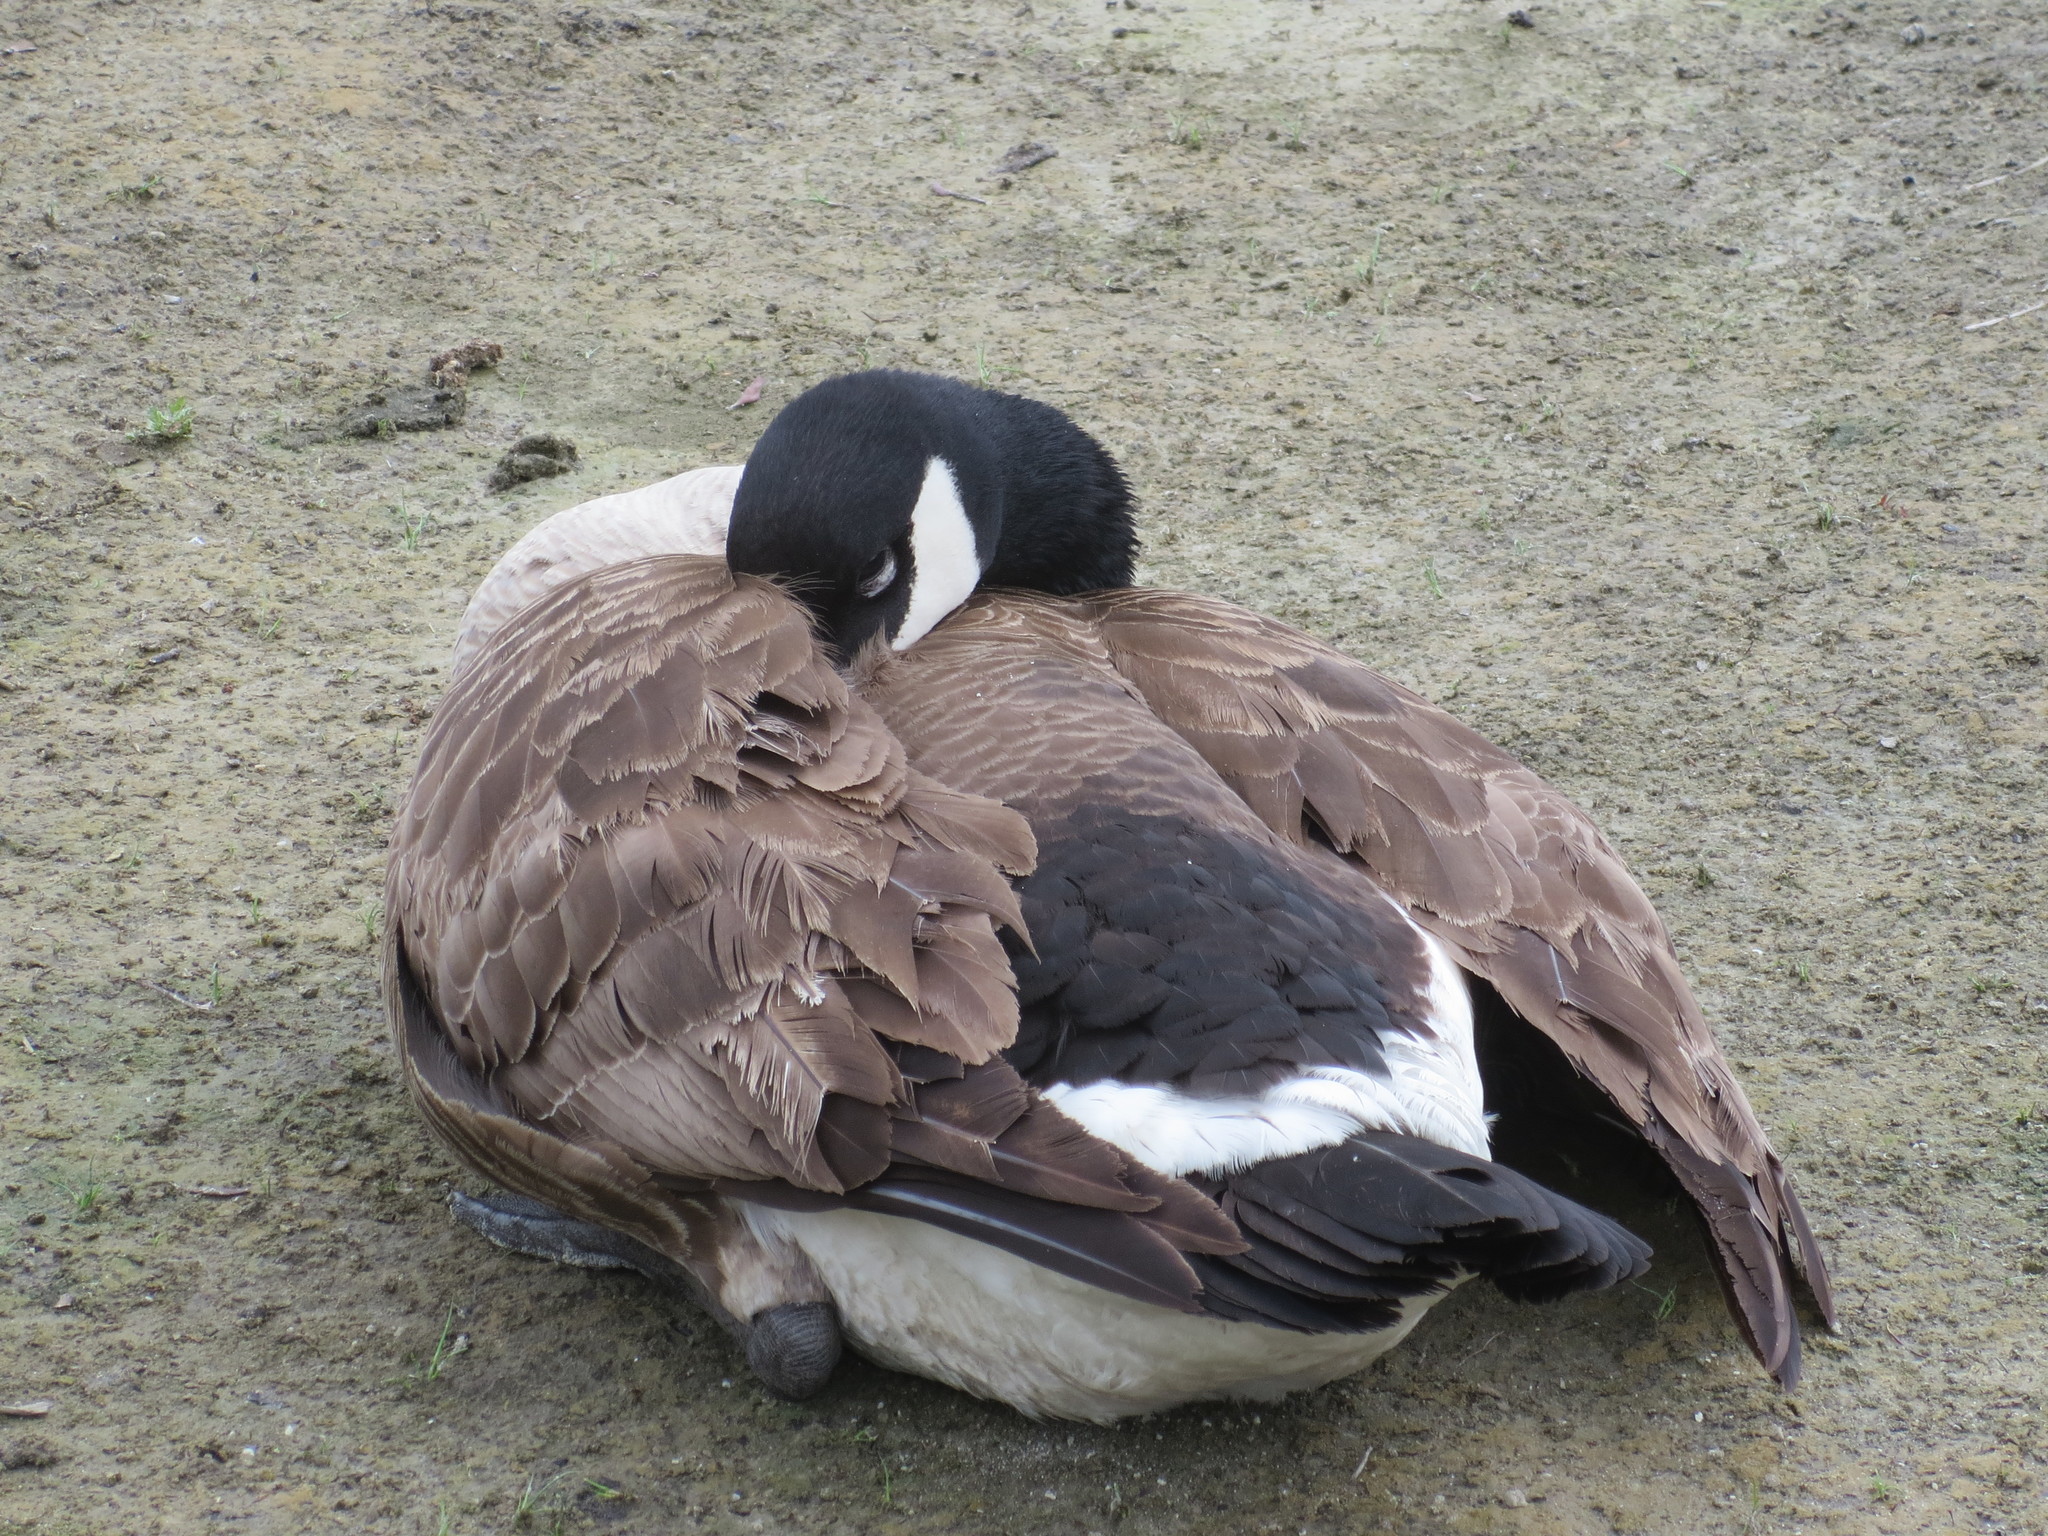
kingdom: Animalia
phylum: Chordata
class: Aves
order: Anseriformes
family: Anatidae
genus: Branta
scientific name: Branta canadensis
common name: Canada goose
